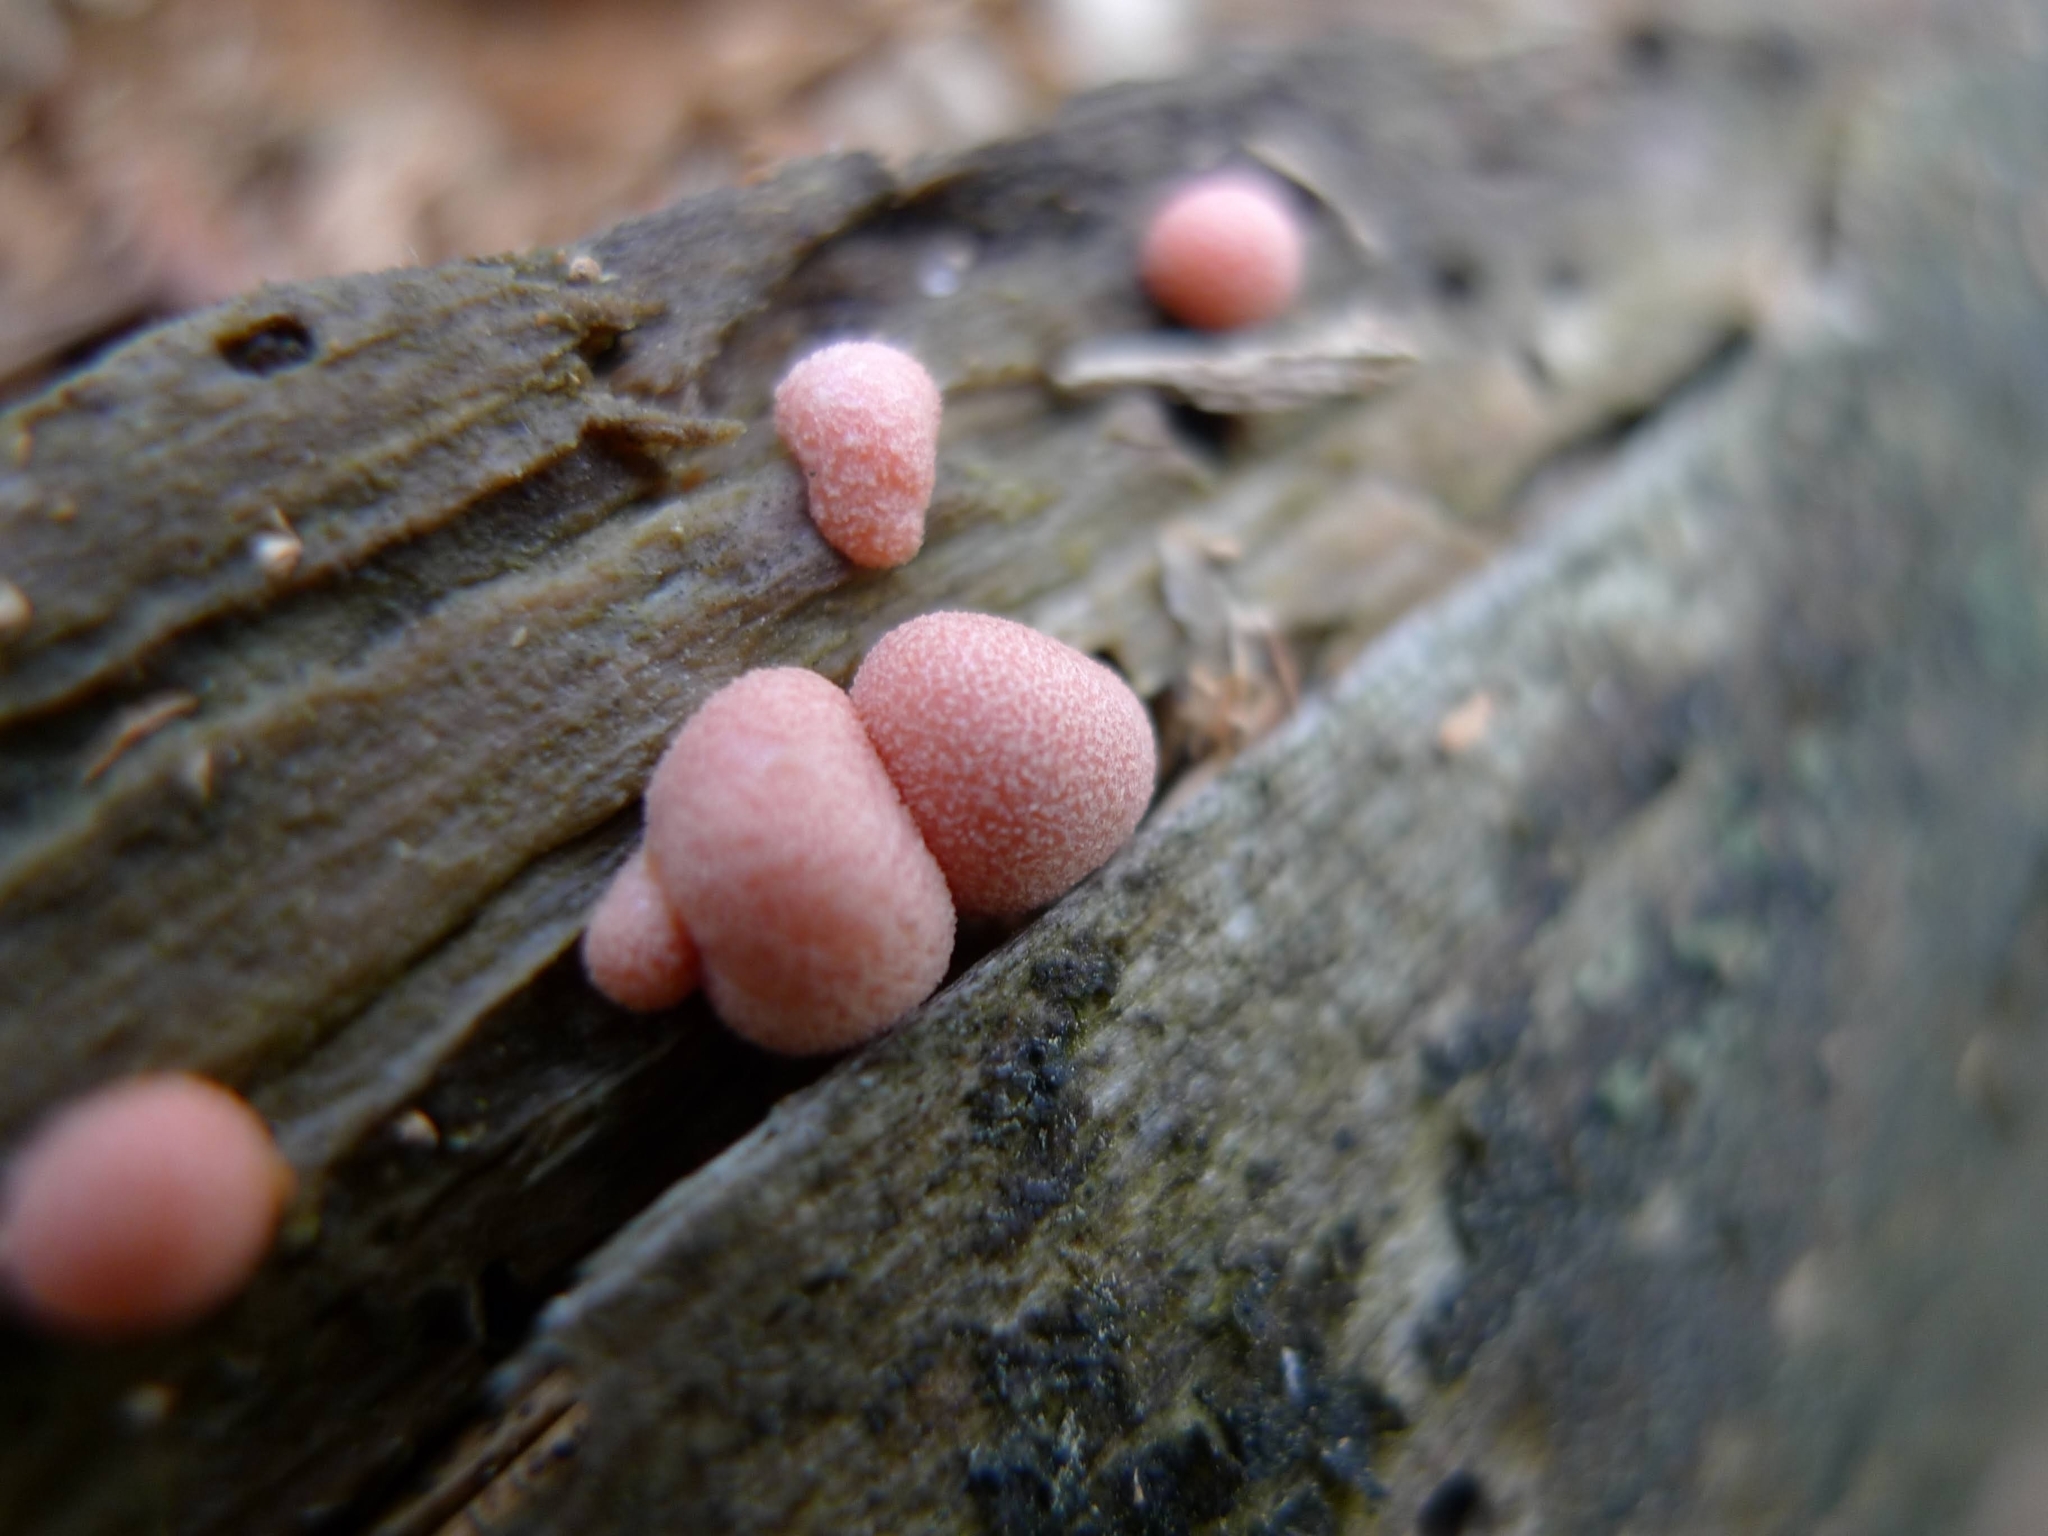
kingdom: Protozoa
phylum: Mycetozoa
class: Myxomycetes
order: Cribrariales
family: Tubiferaceae
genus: Lycogala
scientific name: Lycogala epidendrum
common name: Wolf's milk
